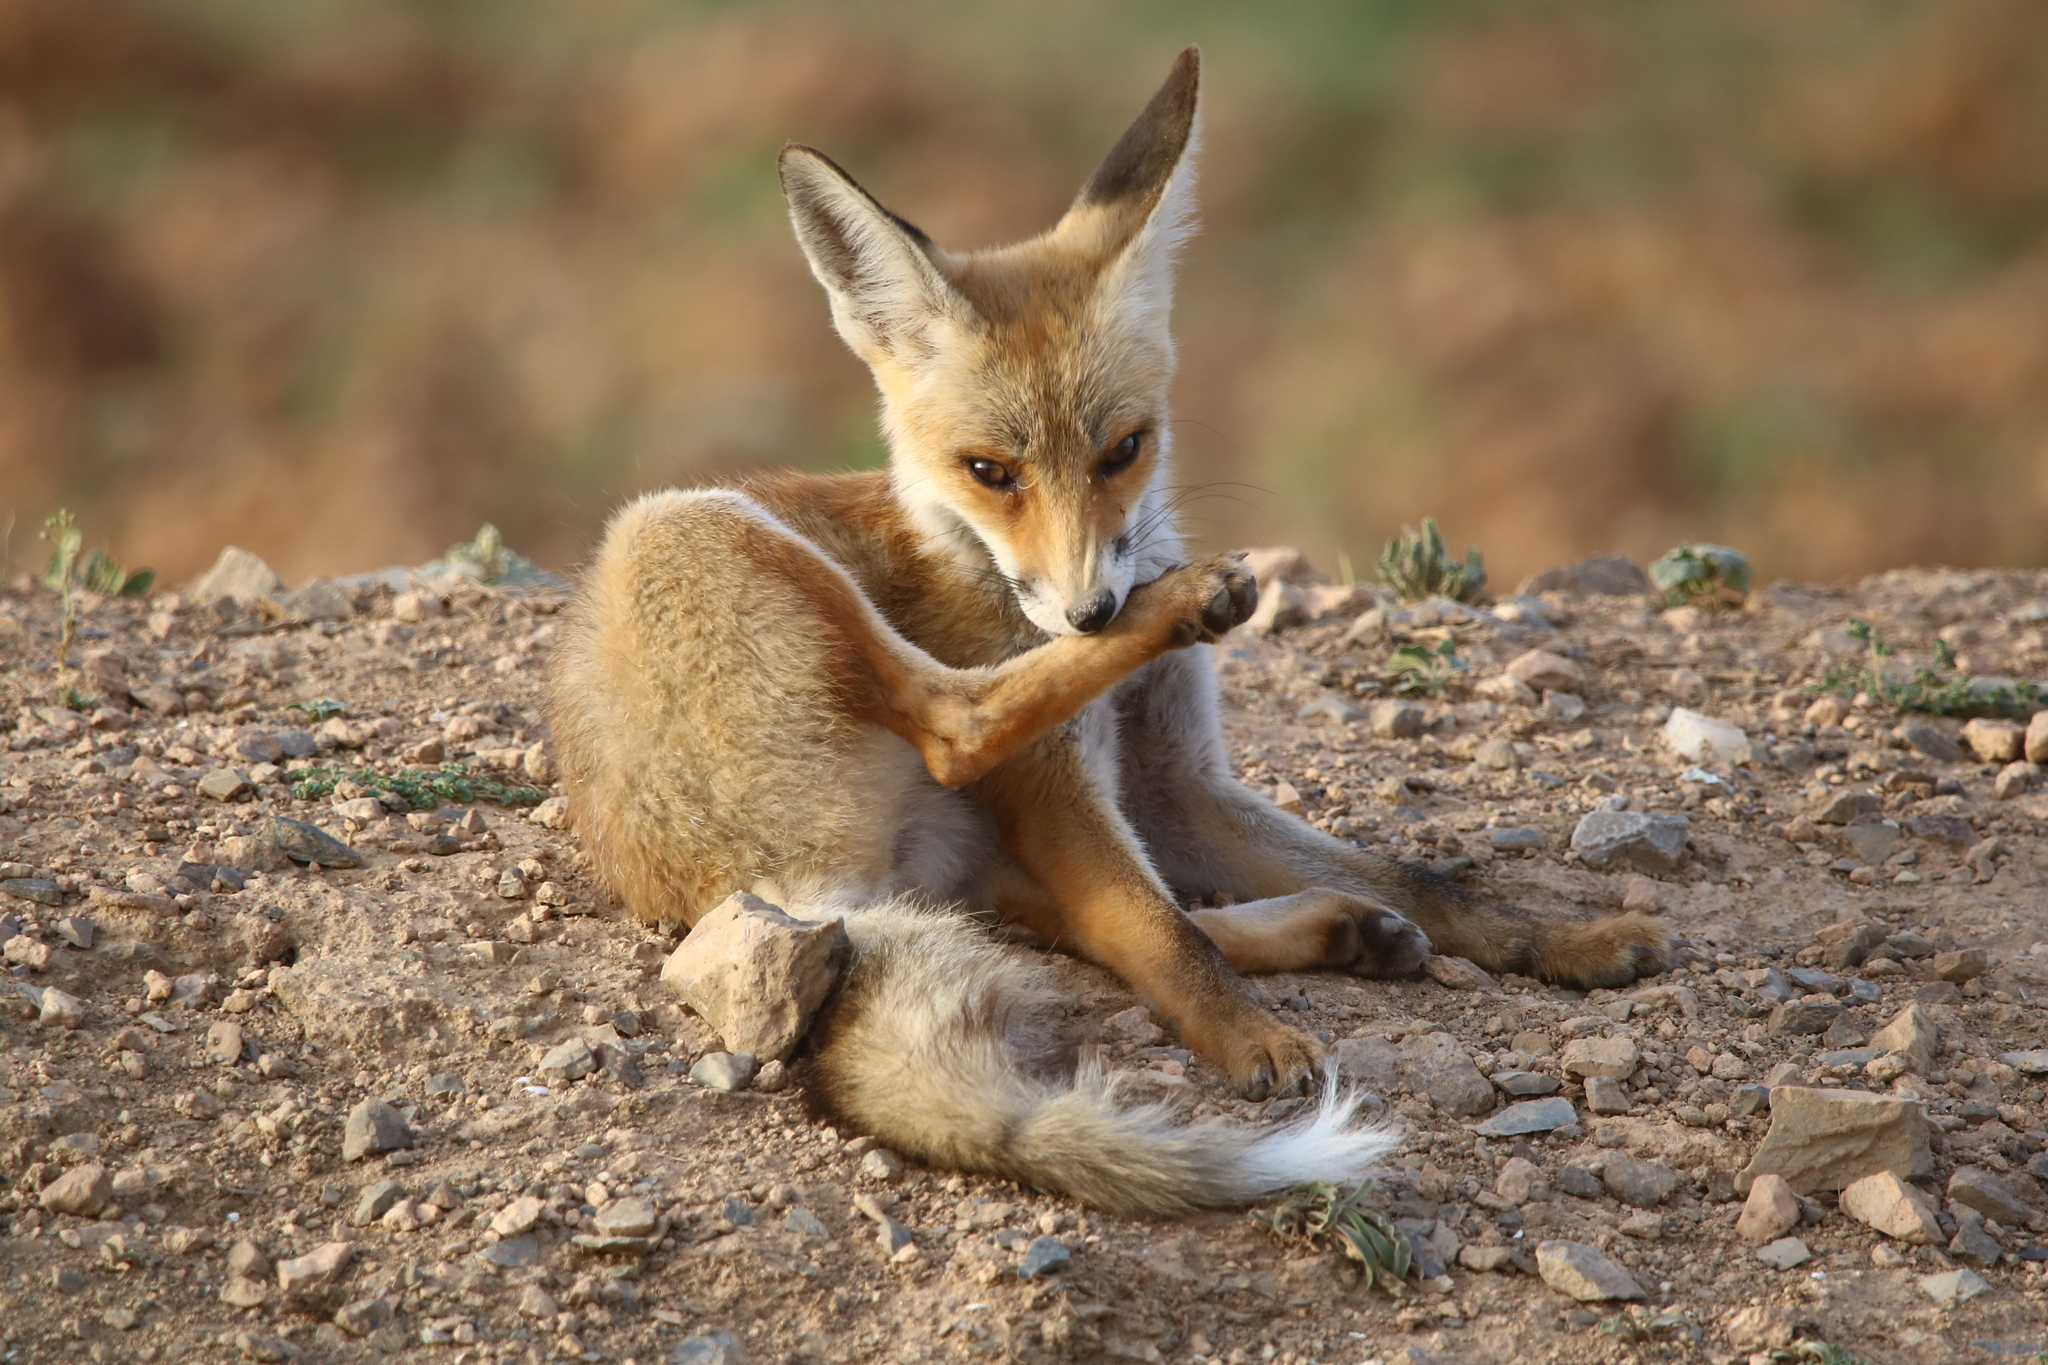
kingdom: Animalia
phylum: Chordata
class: Mammalia
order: Carnivora
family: Canidae
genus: Vulpes
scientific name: Vulpes vulpes
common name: Red fox
